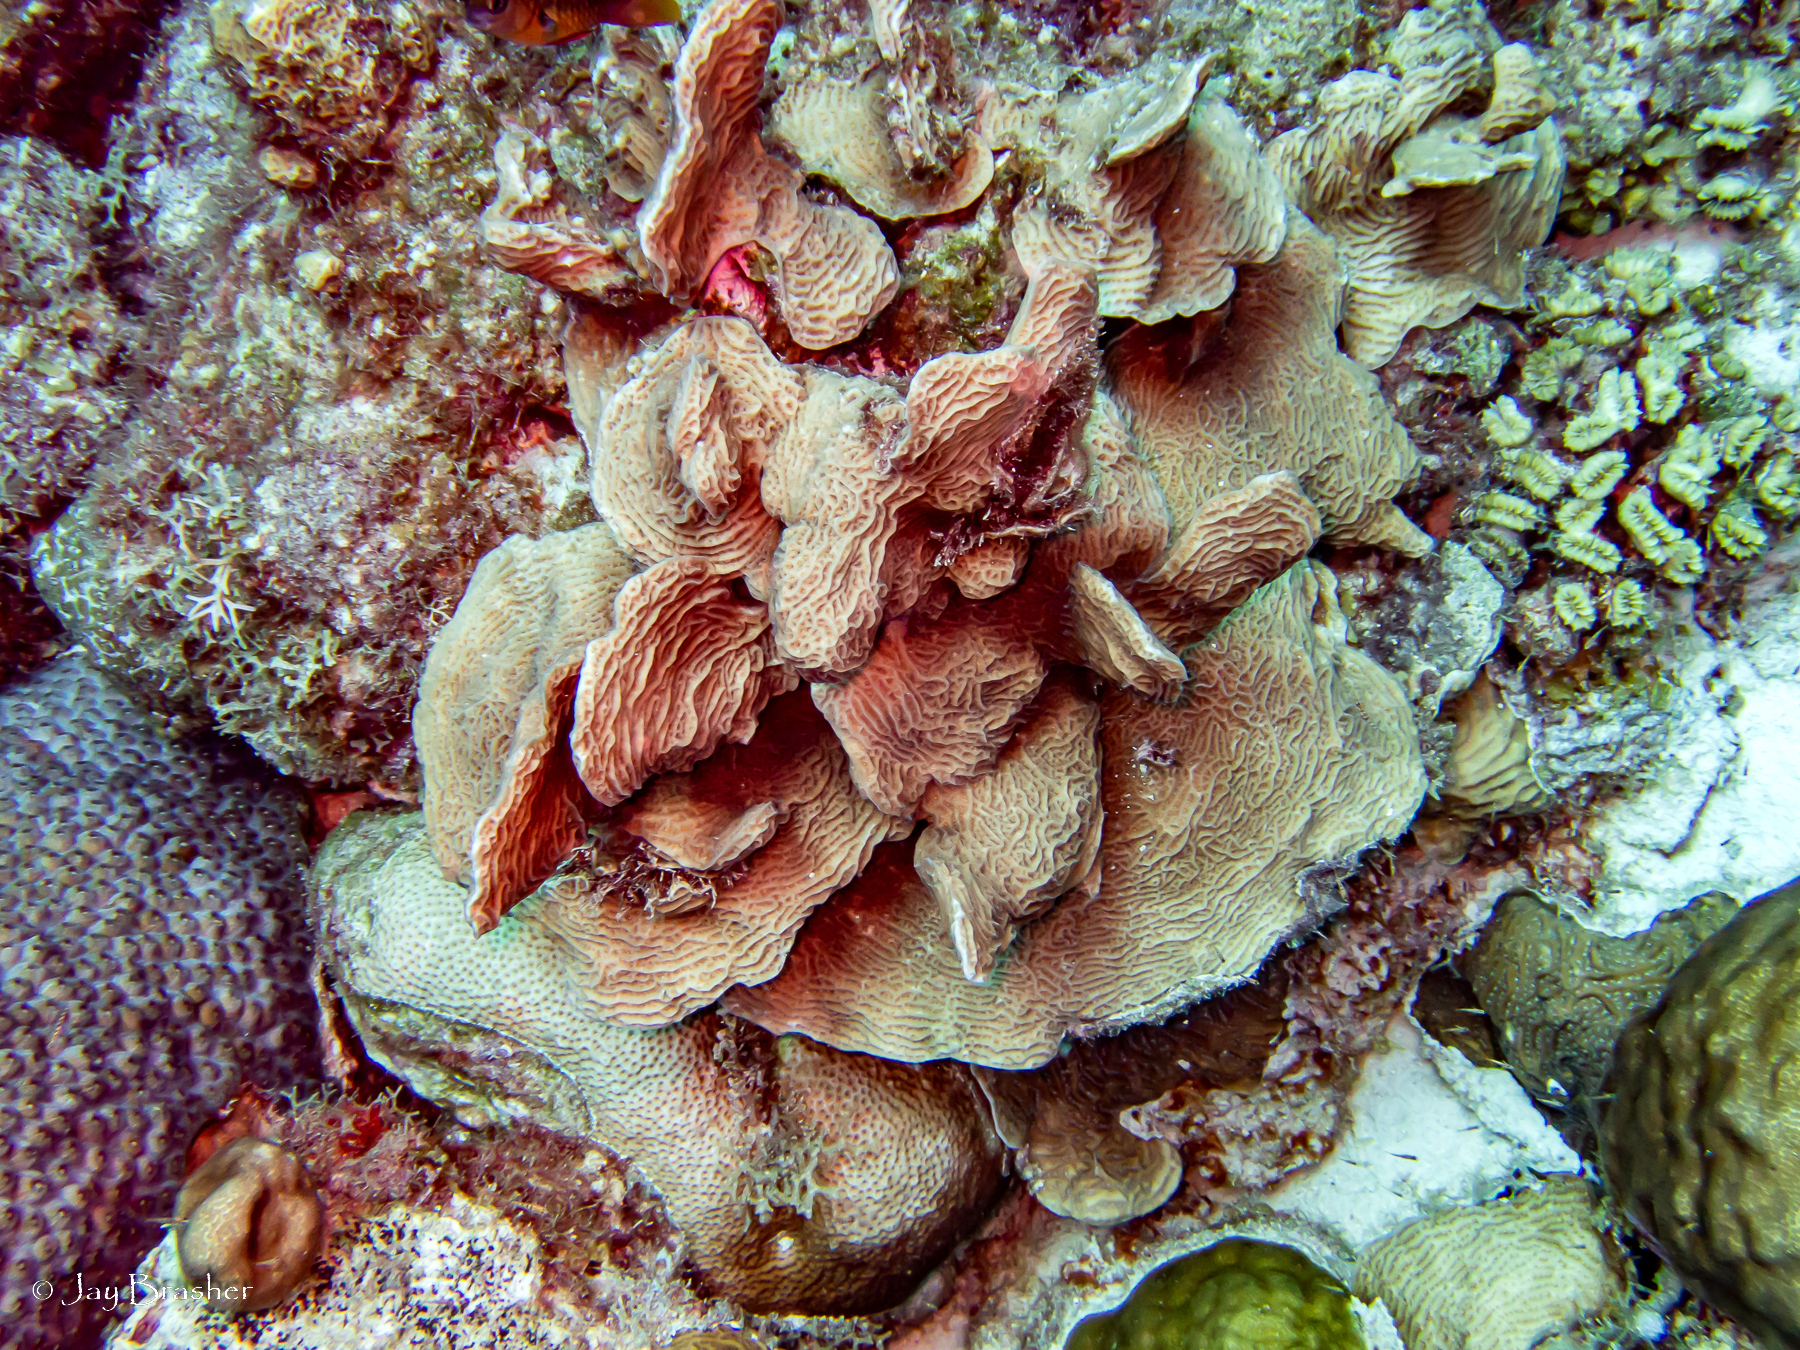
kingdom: Animalia
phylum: Cnidaria
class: Anthozoa
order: Scleractinia
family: Agariciidae
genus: Agaricia
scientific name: Agaricia agaricites
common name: Lettuce coral
